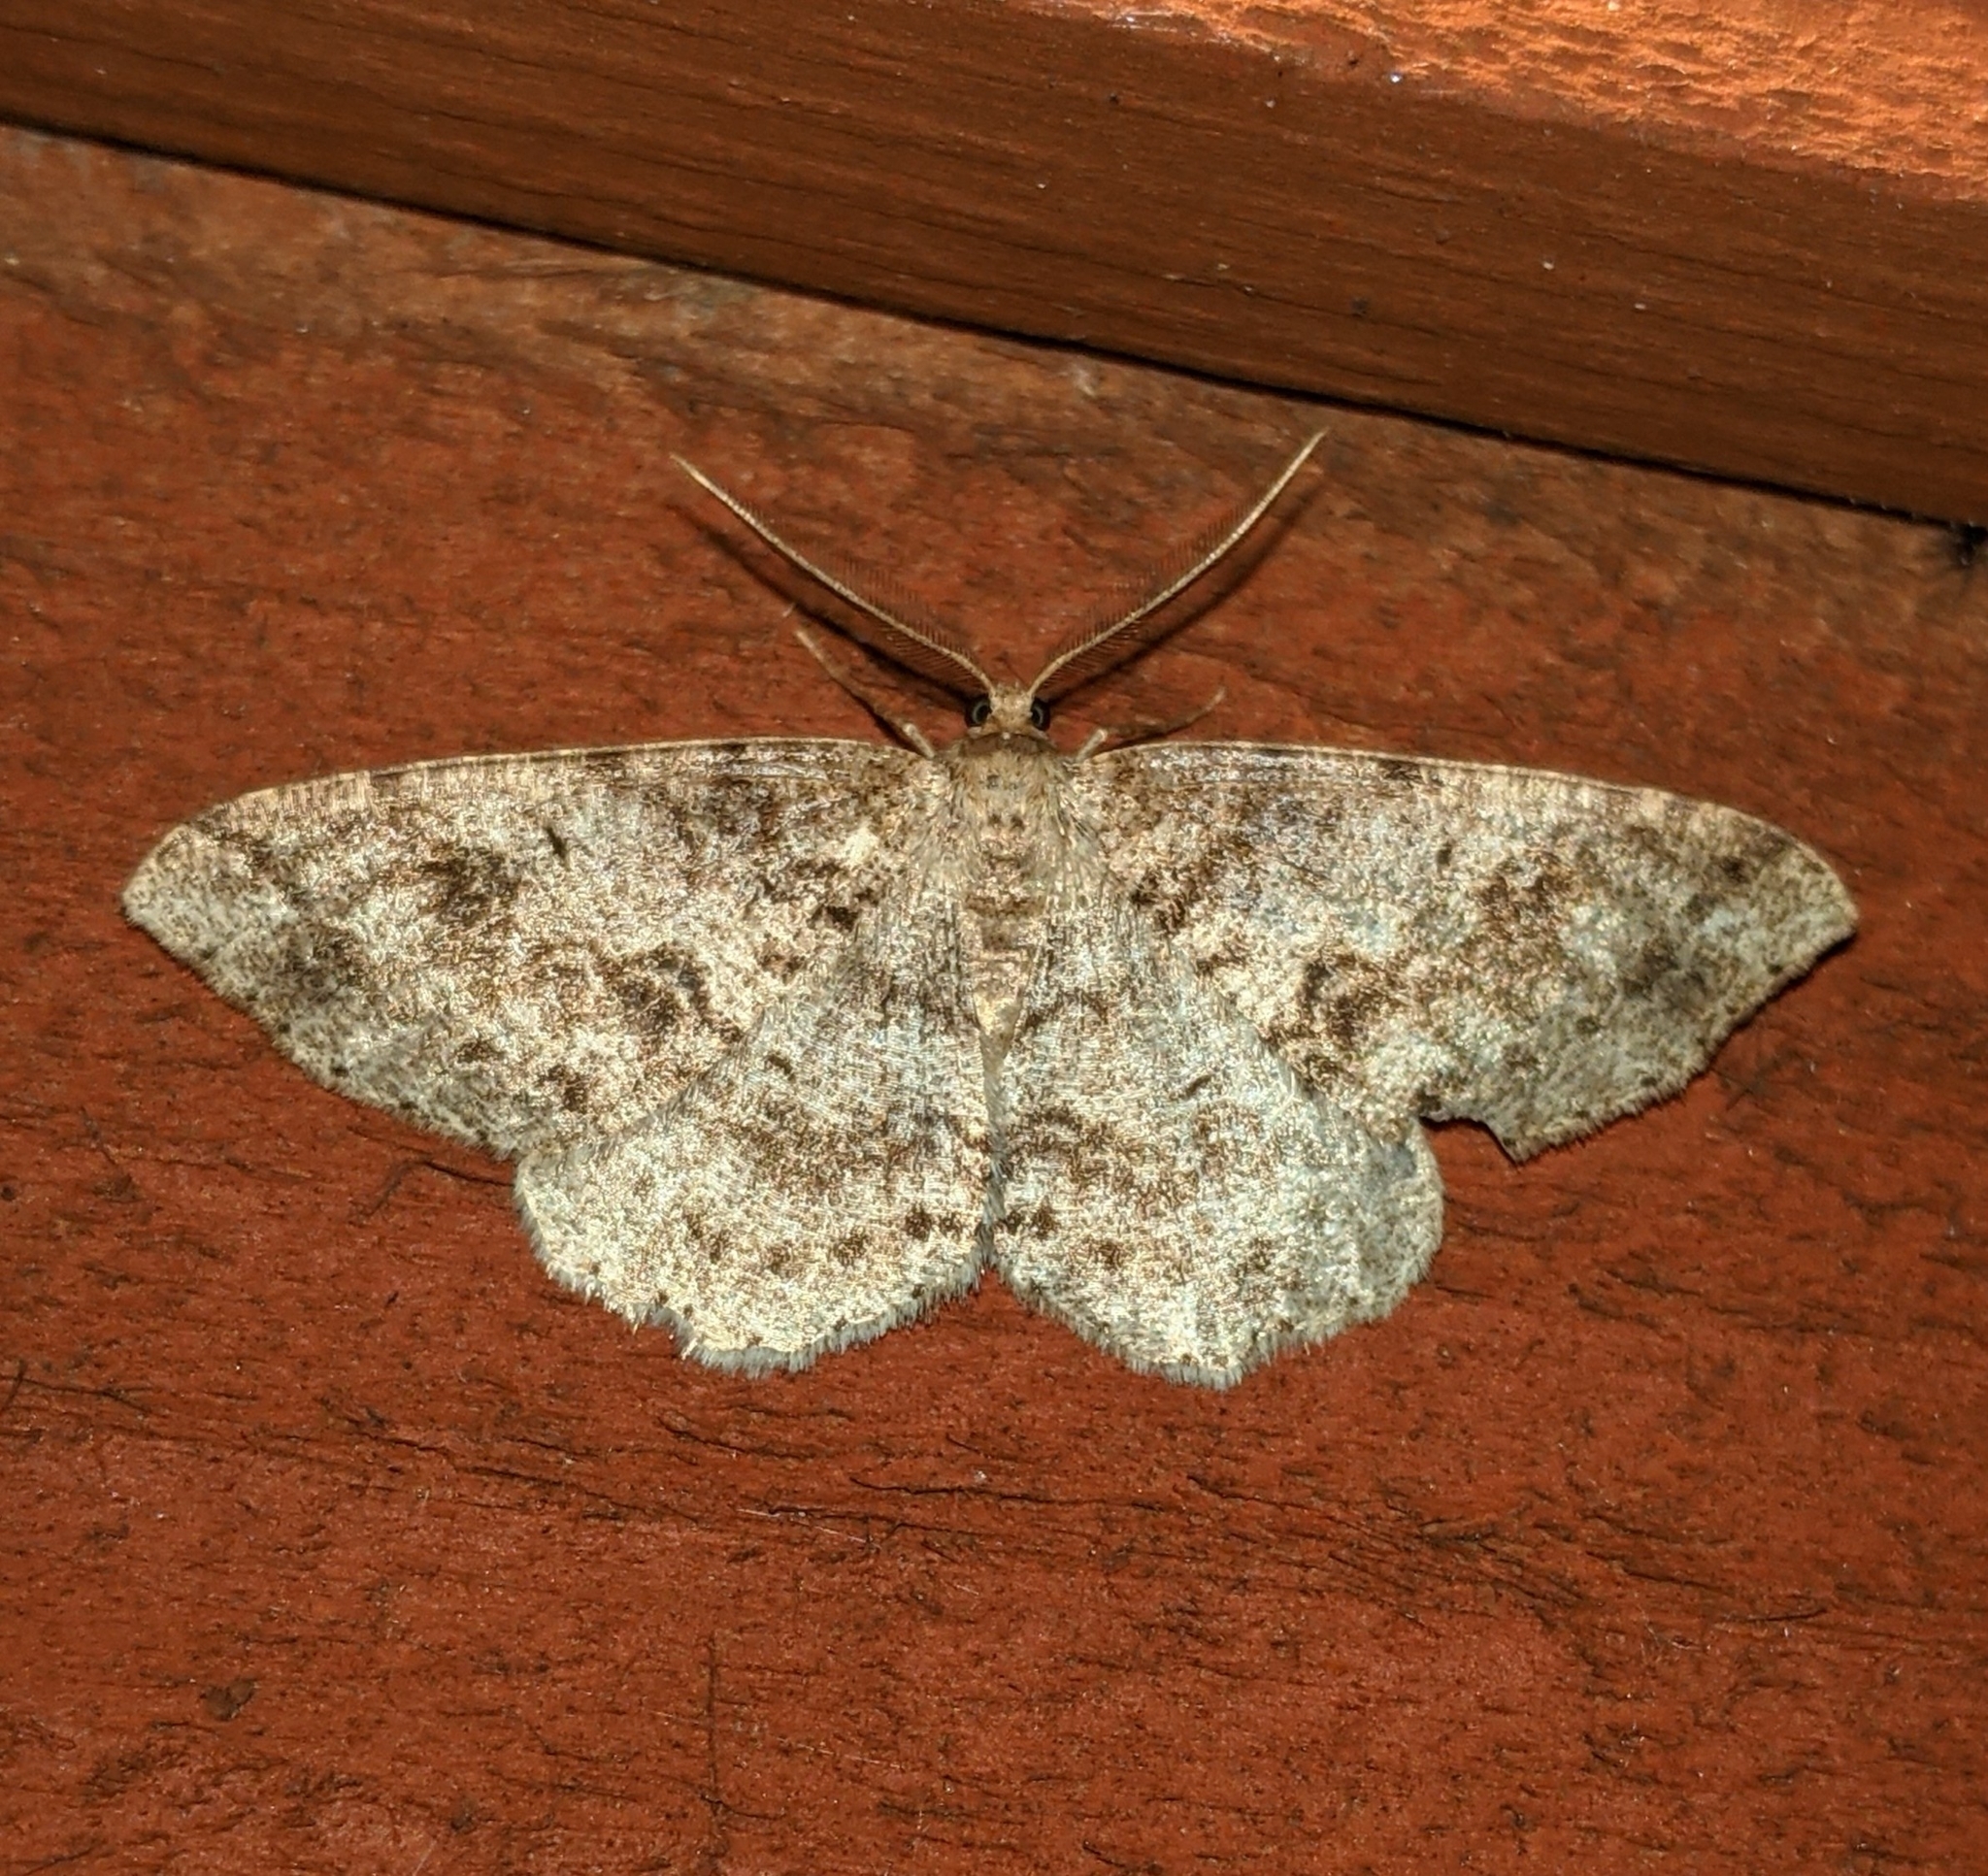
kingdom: Animalia
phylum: Arthropoda
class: Insecta
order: Lepidoptera
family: Geometridae
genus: Melanolophia
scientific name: Melanolophia imitata
